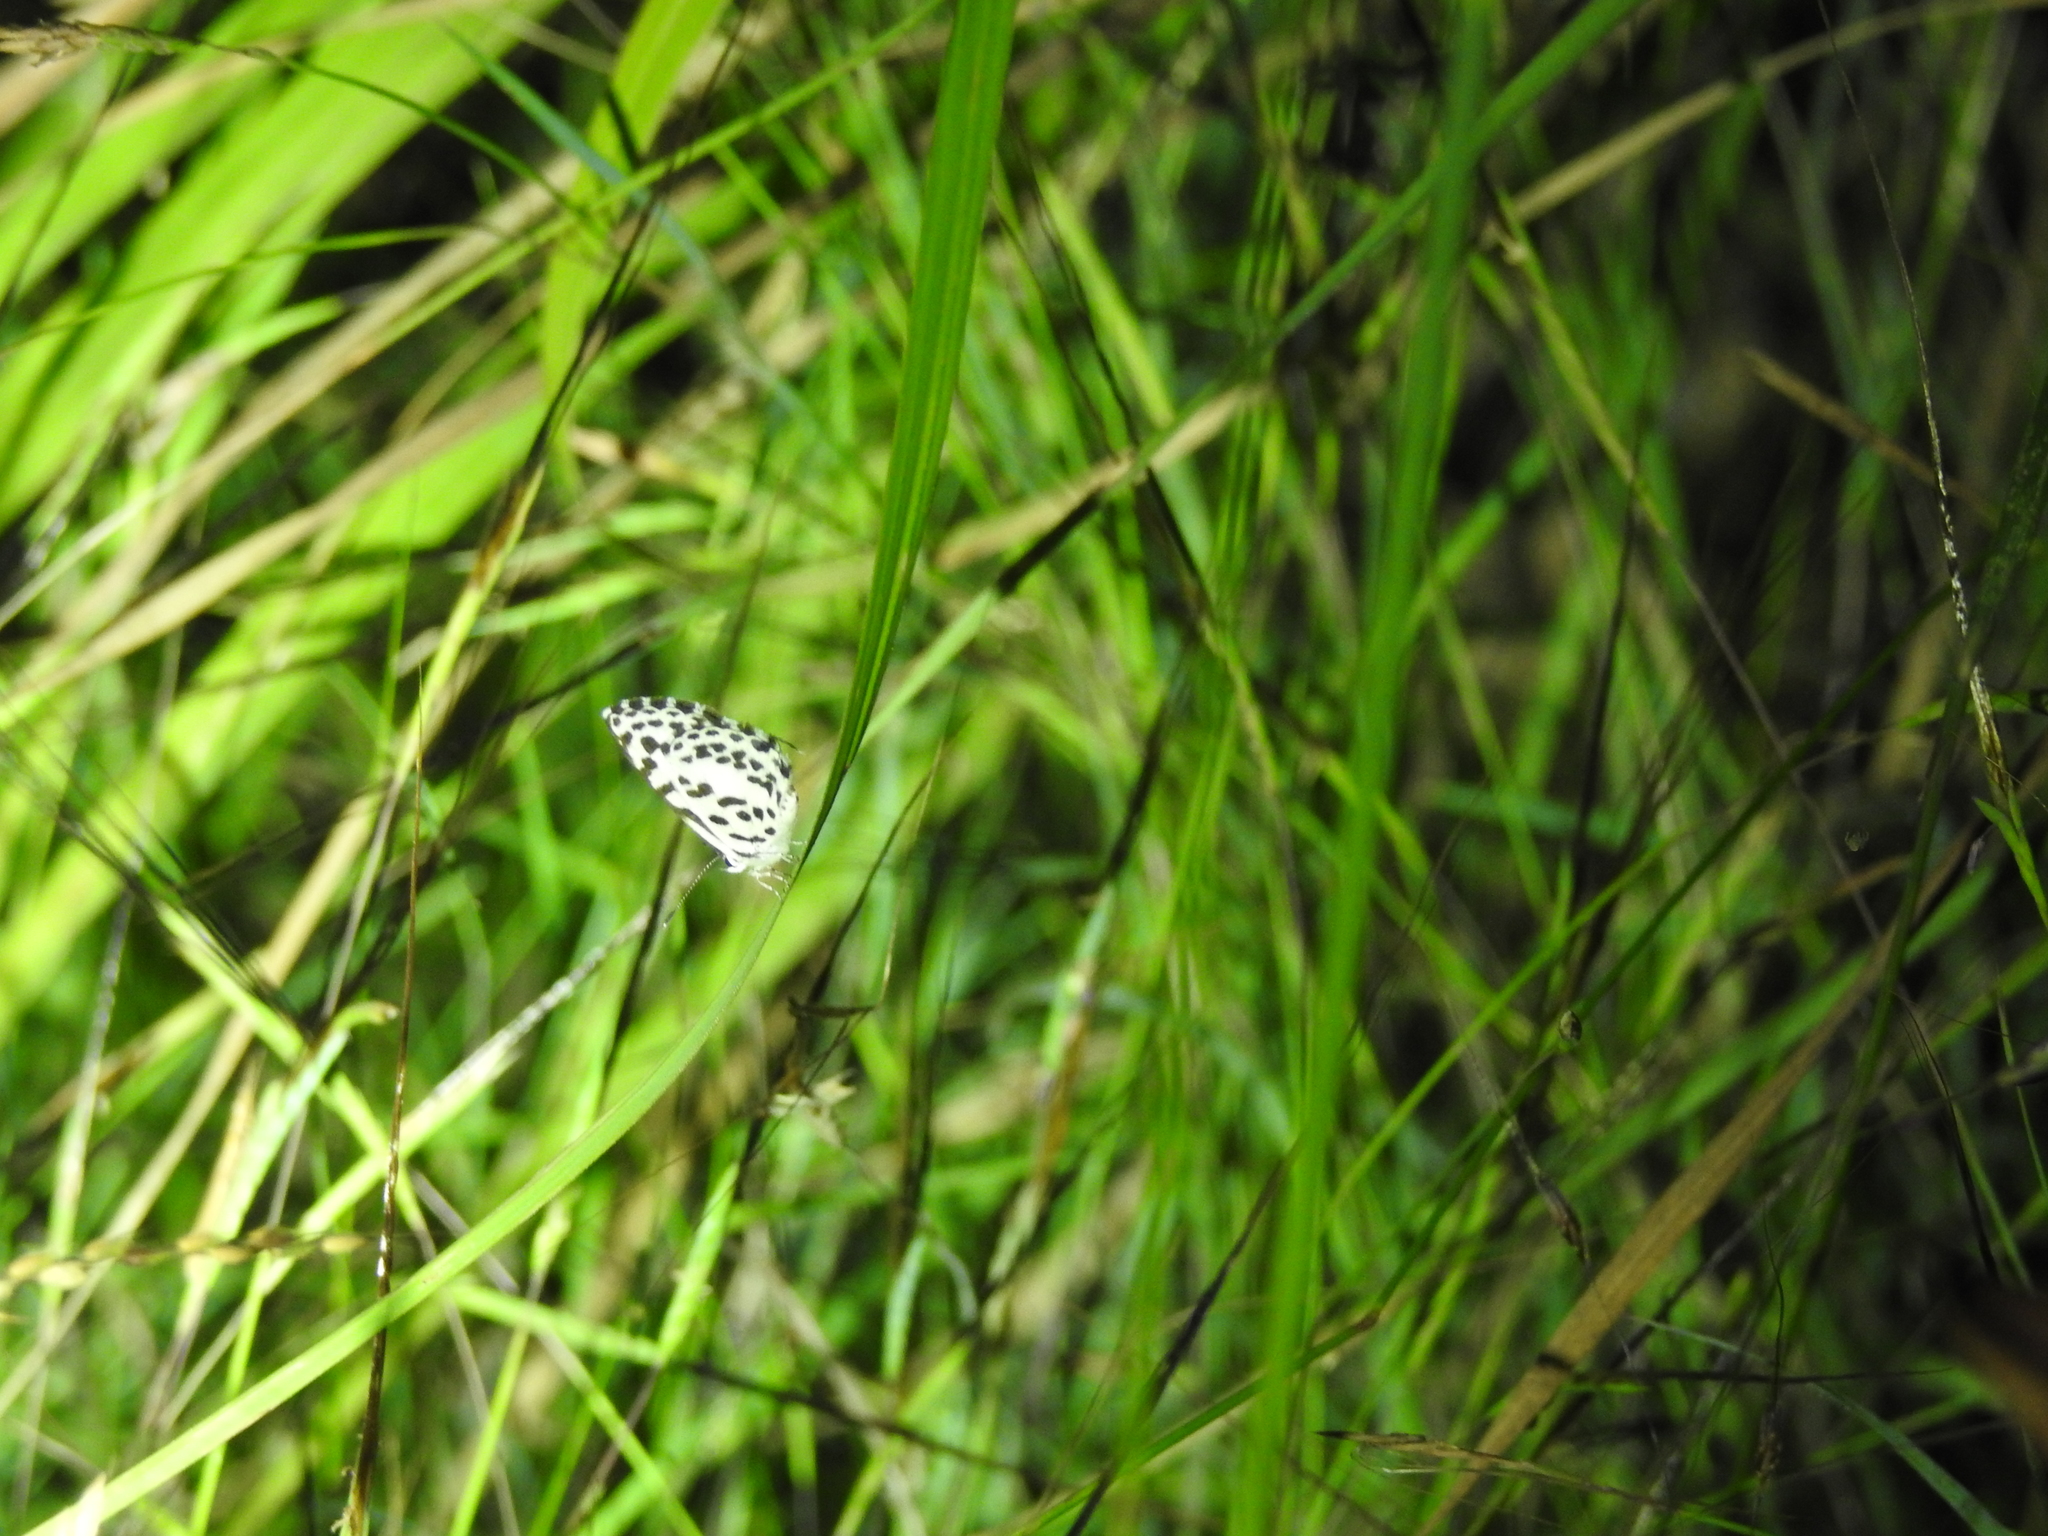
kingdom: Animalia
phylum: Arthropoda
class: Insecta
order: Lepidoptera
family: Lycaenidae
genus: Castalius
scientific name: Castalius rosimon
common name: Common pierrot
